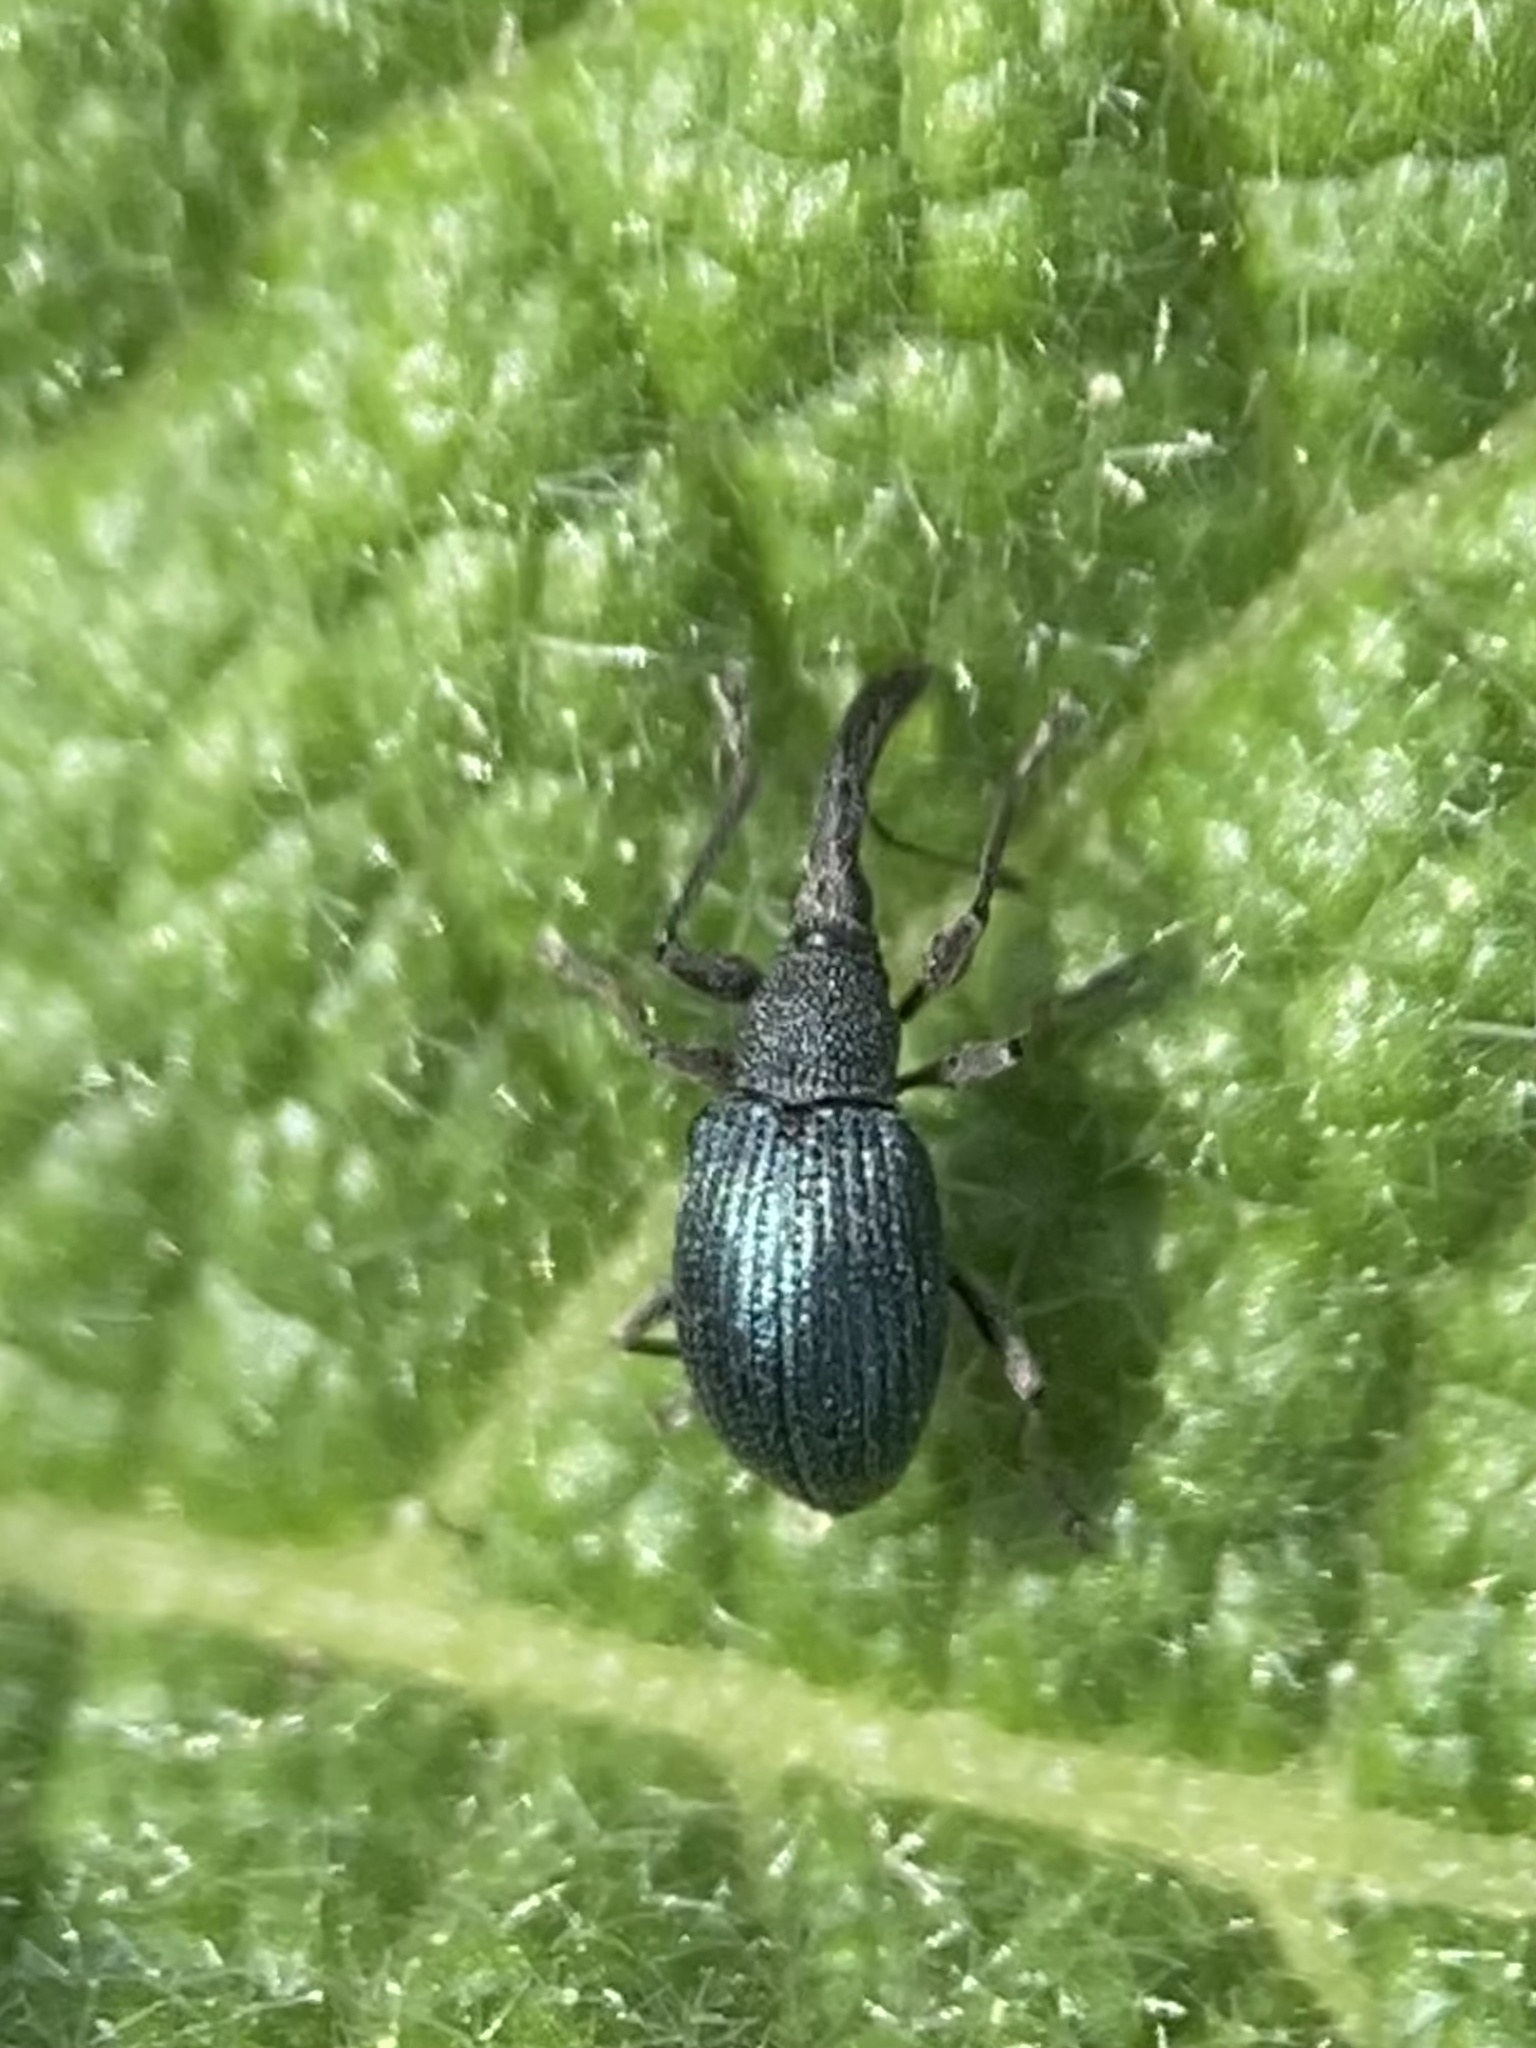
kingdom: Animalia
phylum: Arthropoda
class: Insecta
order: Coleoptera
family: Brentidae
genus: Alocentron
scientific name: Alocentron curvirostre
